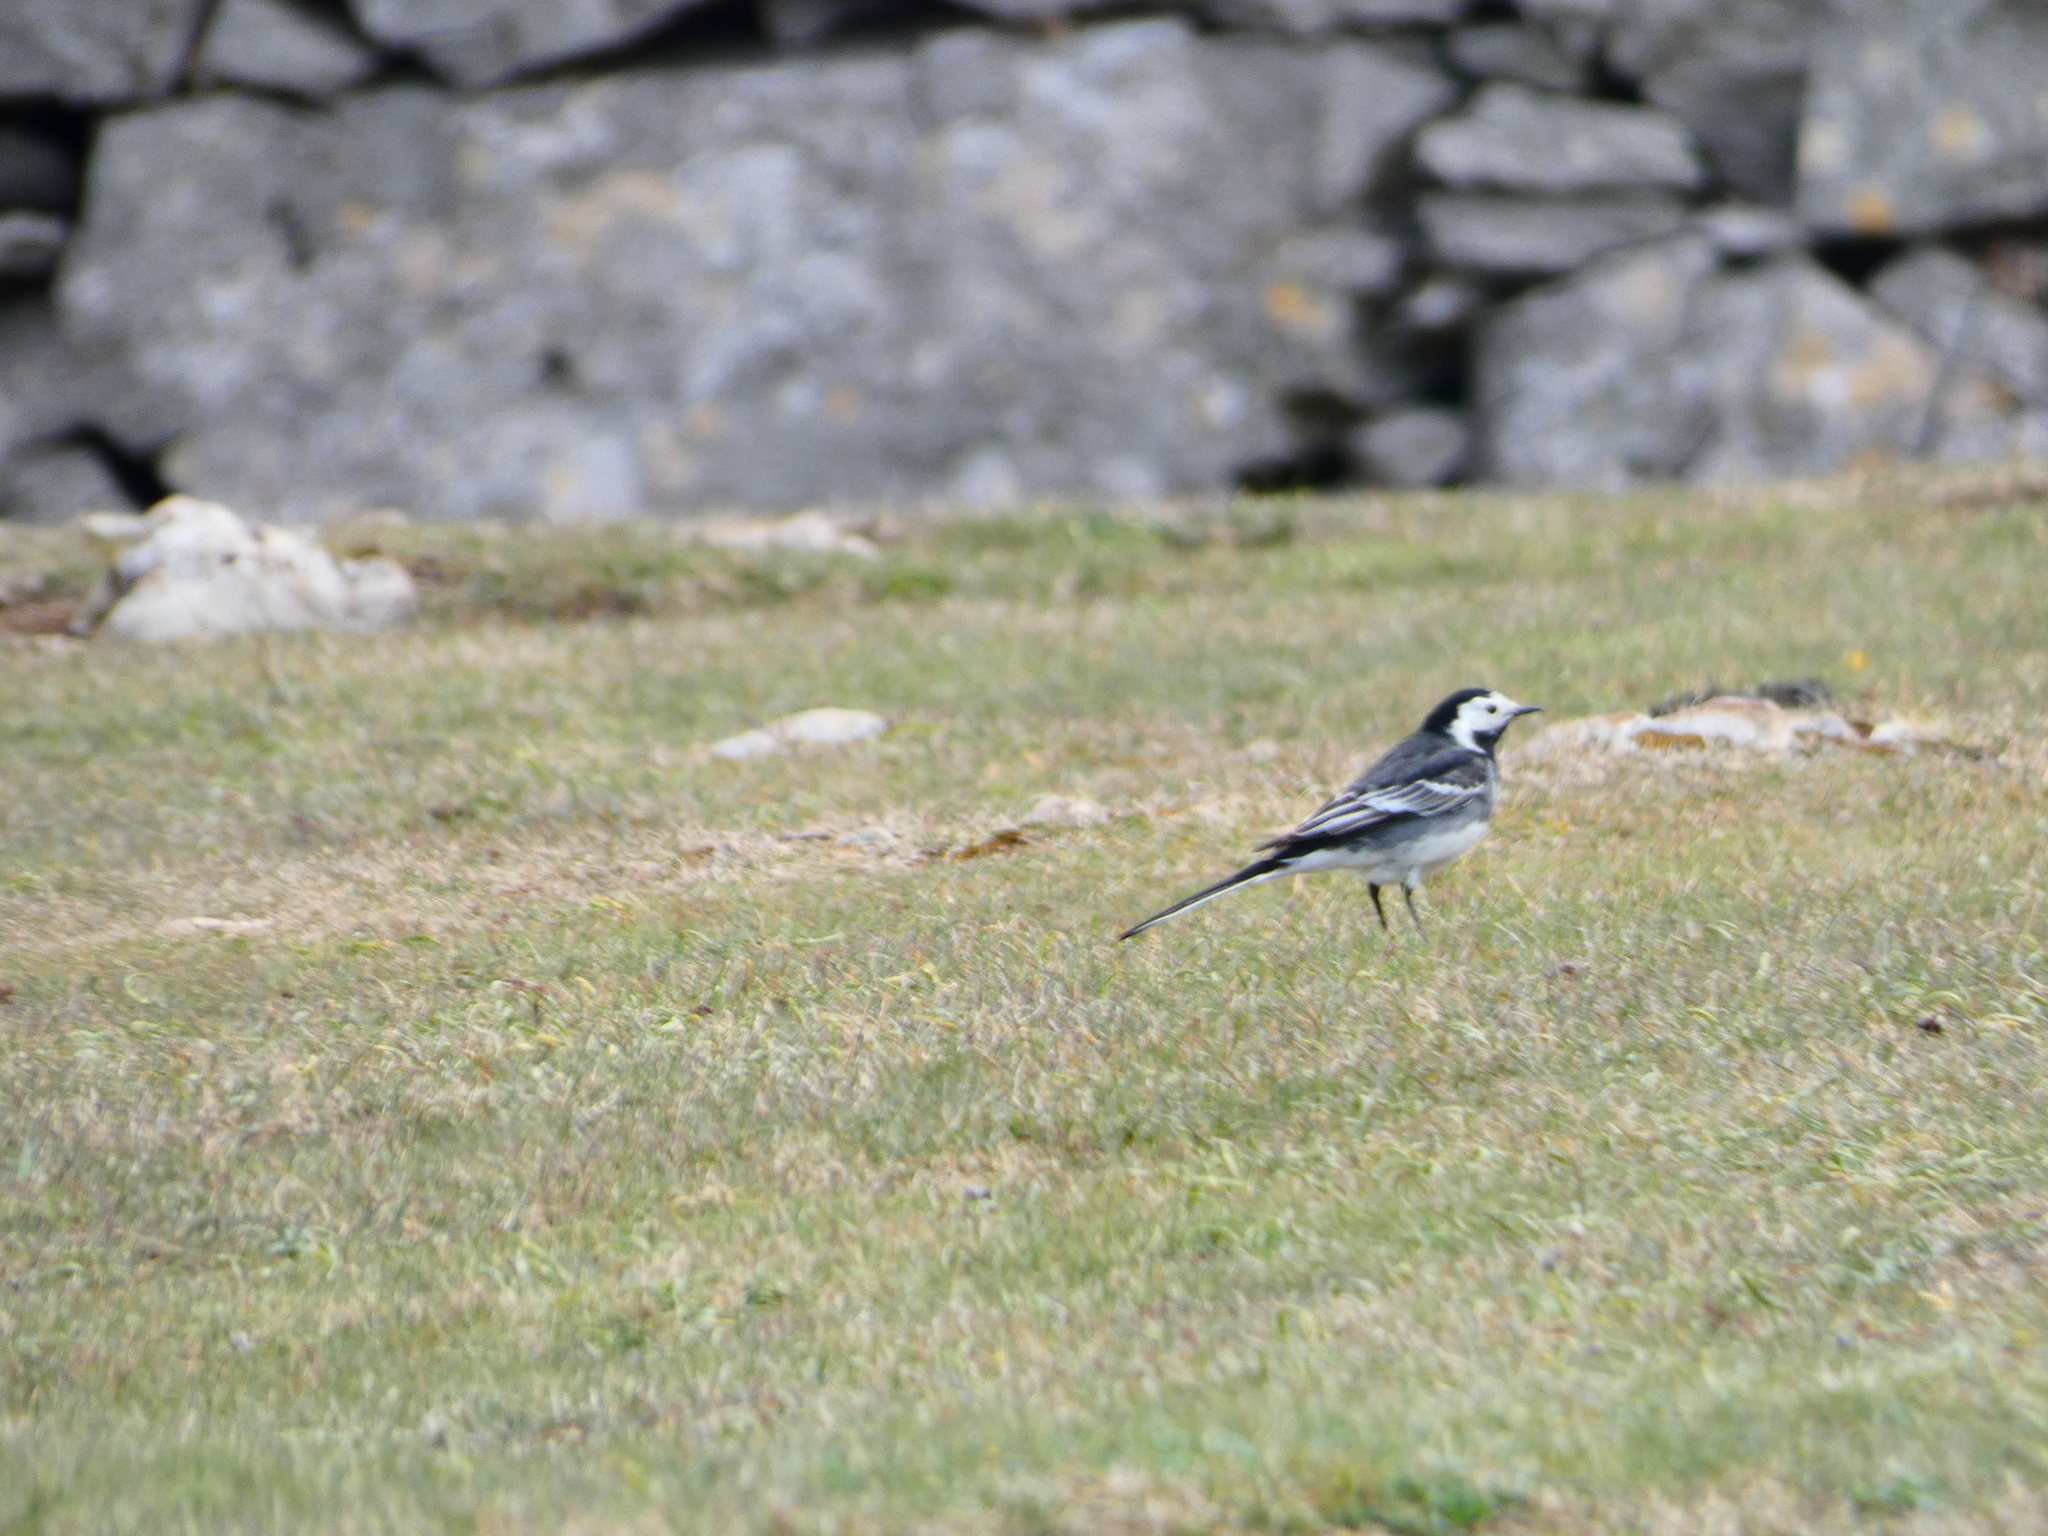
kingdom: Animalia
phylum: Chordata
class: Aves
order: Passeriformes
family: Motacillidae
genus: Motacilla
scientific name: Motacilla alba
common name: White wagtail
